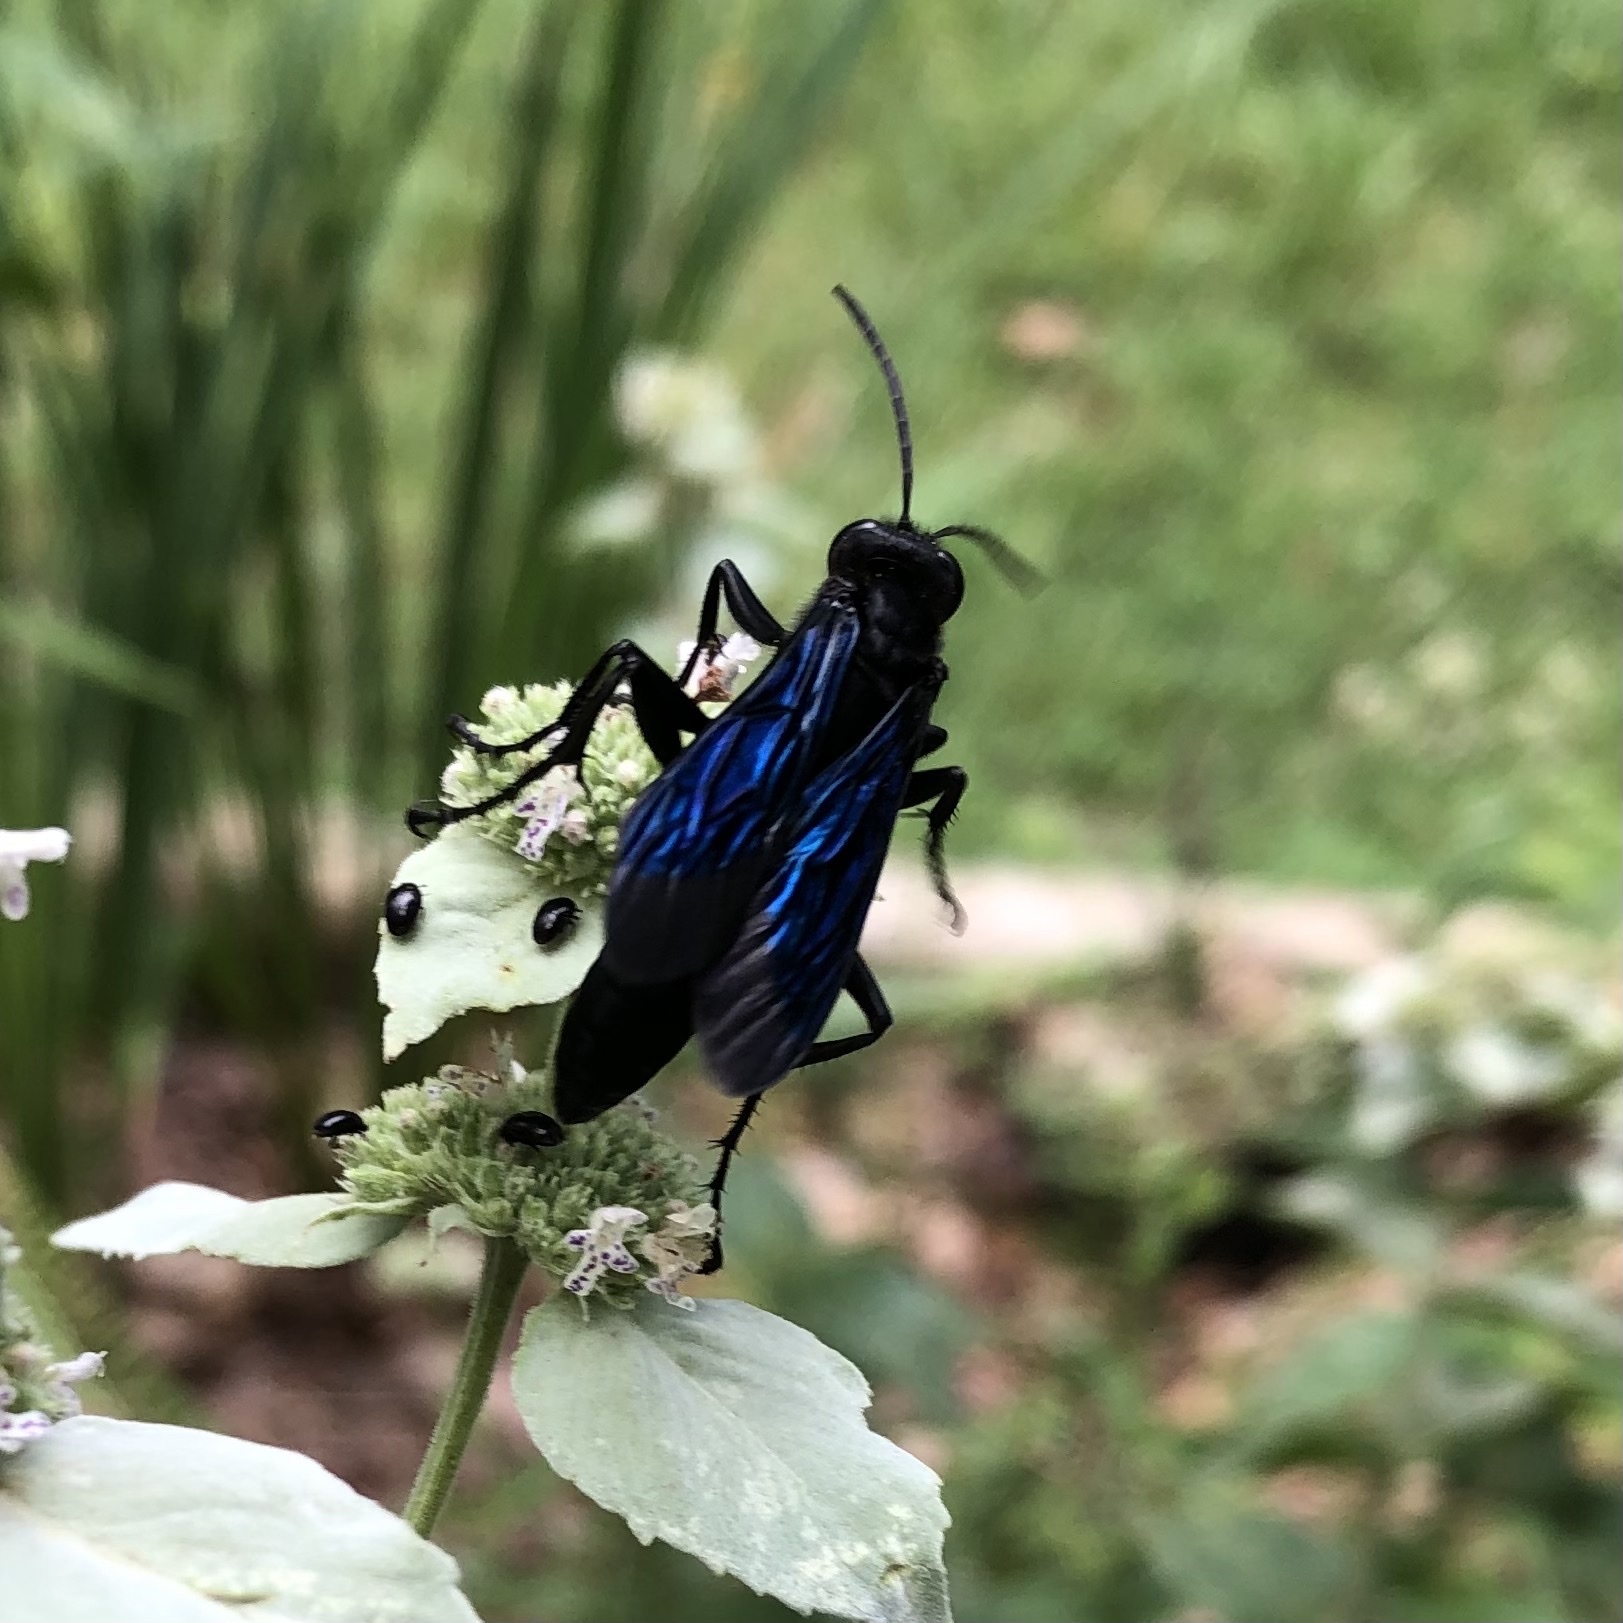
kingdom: Animalia
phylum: Arthropoda
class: Insecta
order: Hymenoptera
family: Sphecidae
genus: Sphex
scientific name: Sphex pensylvanicus
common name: Great black digger wasp
